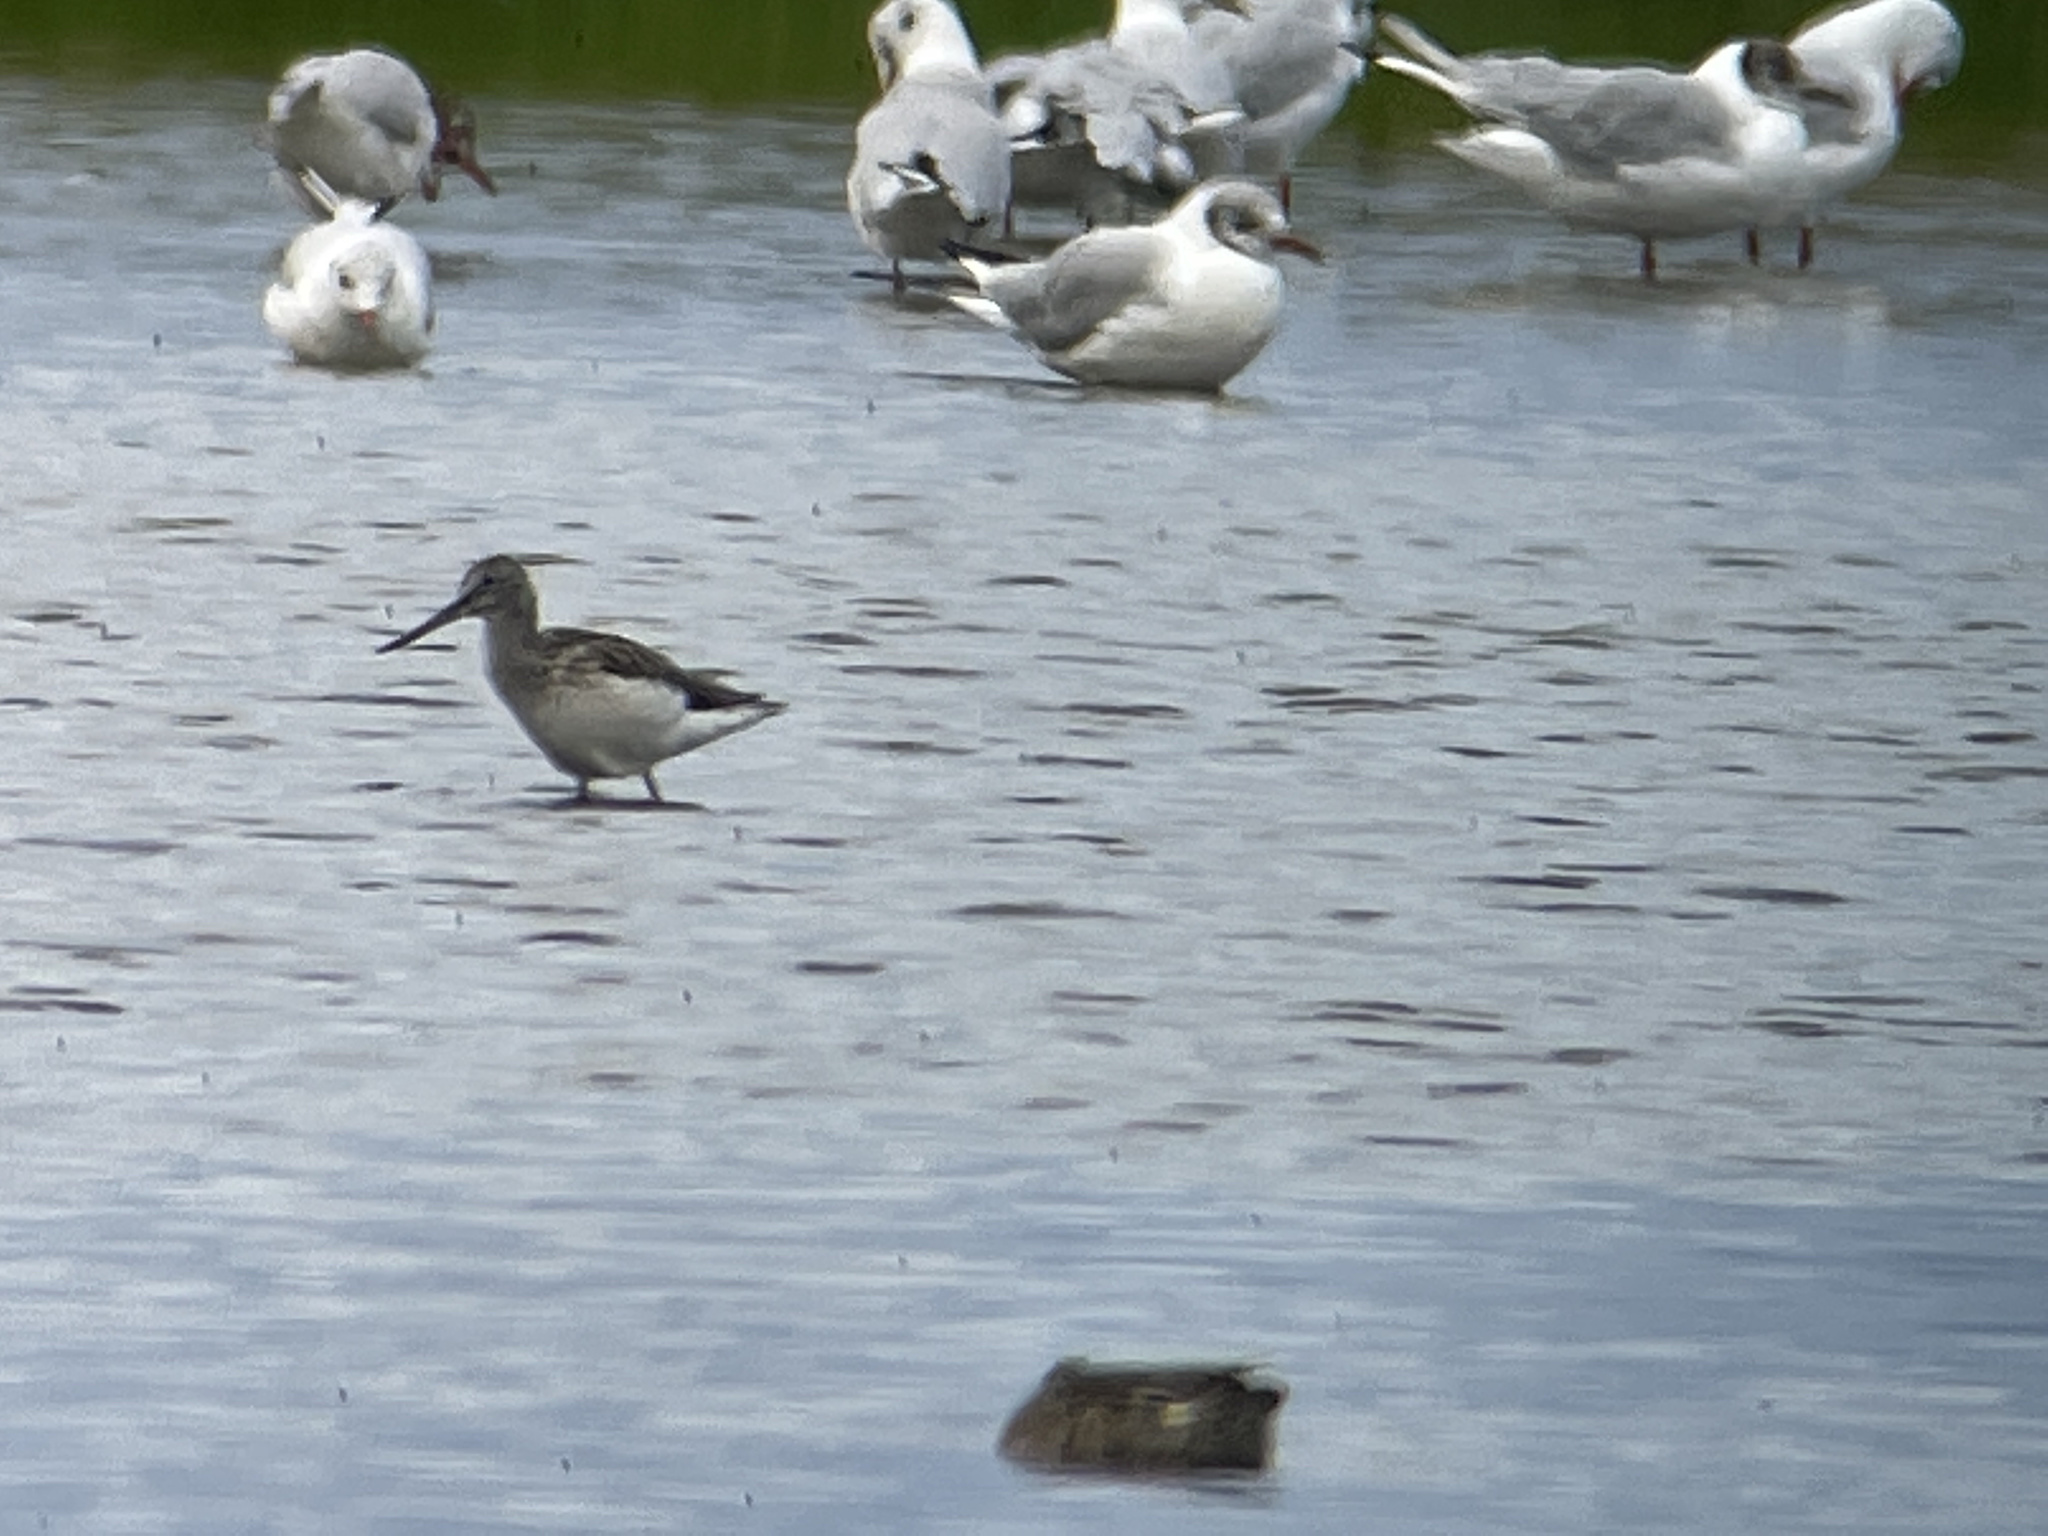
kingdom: Animalia
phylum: Chordata
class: Aves
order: Charadriiformes
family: Scolopacidae
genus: Tringa
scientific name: Tringa nebularia
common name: Common greenshank
